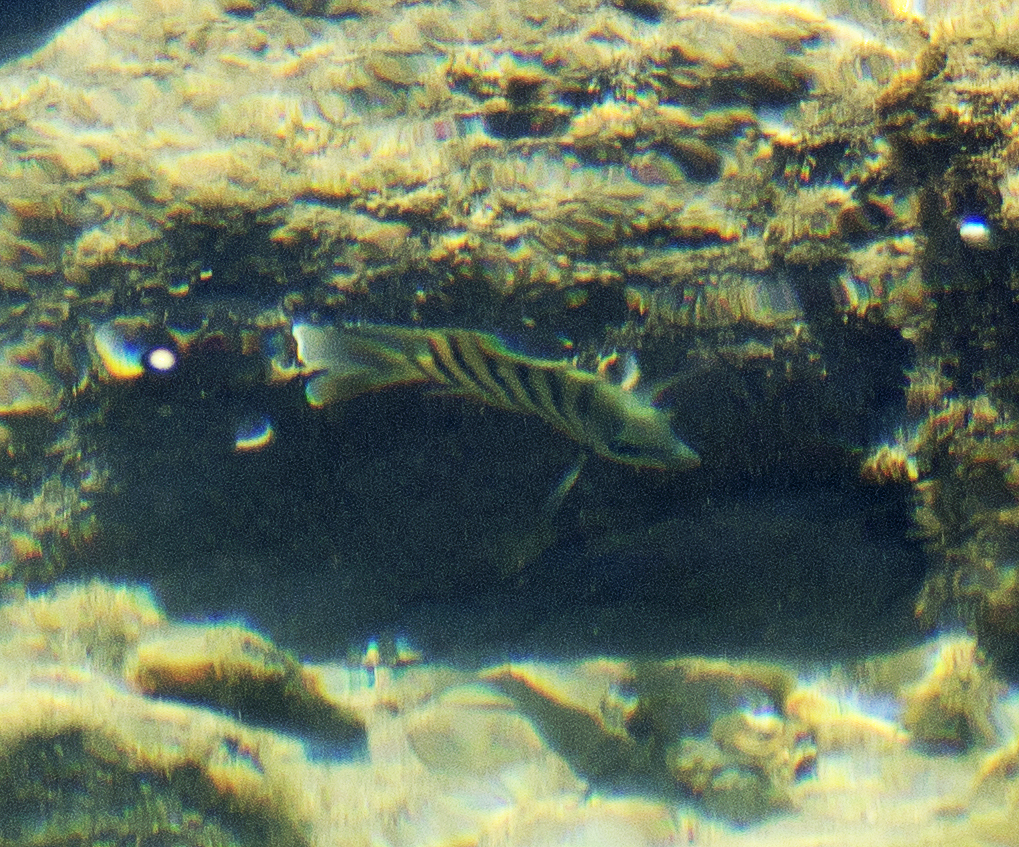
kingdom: Animalia
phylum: Chordata
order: Perciformes
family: Pomacentridae
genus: Abudefduf
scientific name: Abudefduf bengalensis
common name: Bengal sergeant
